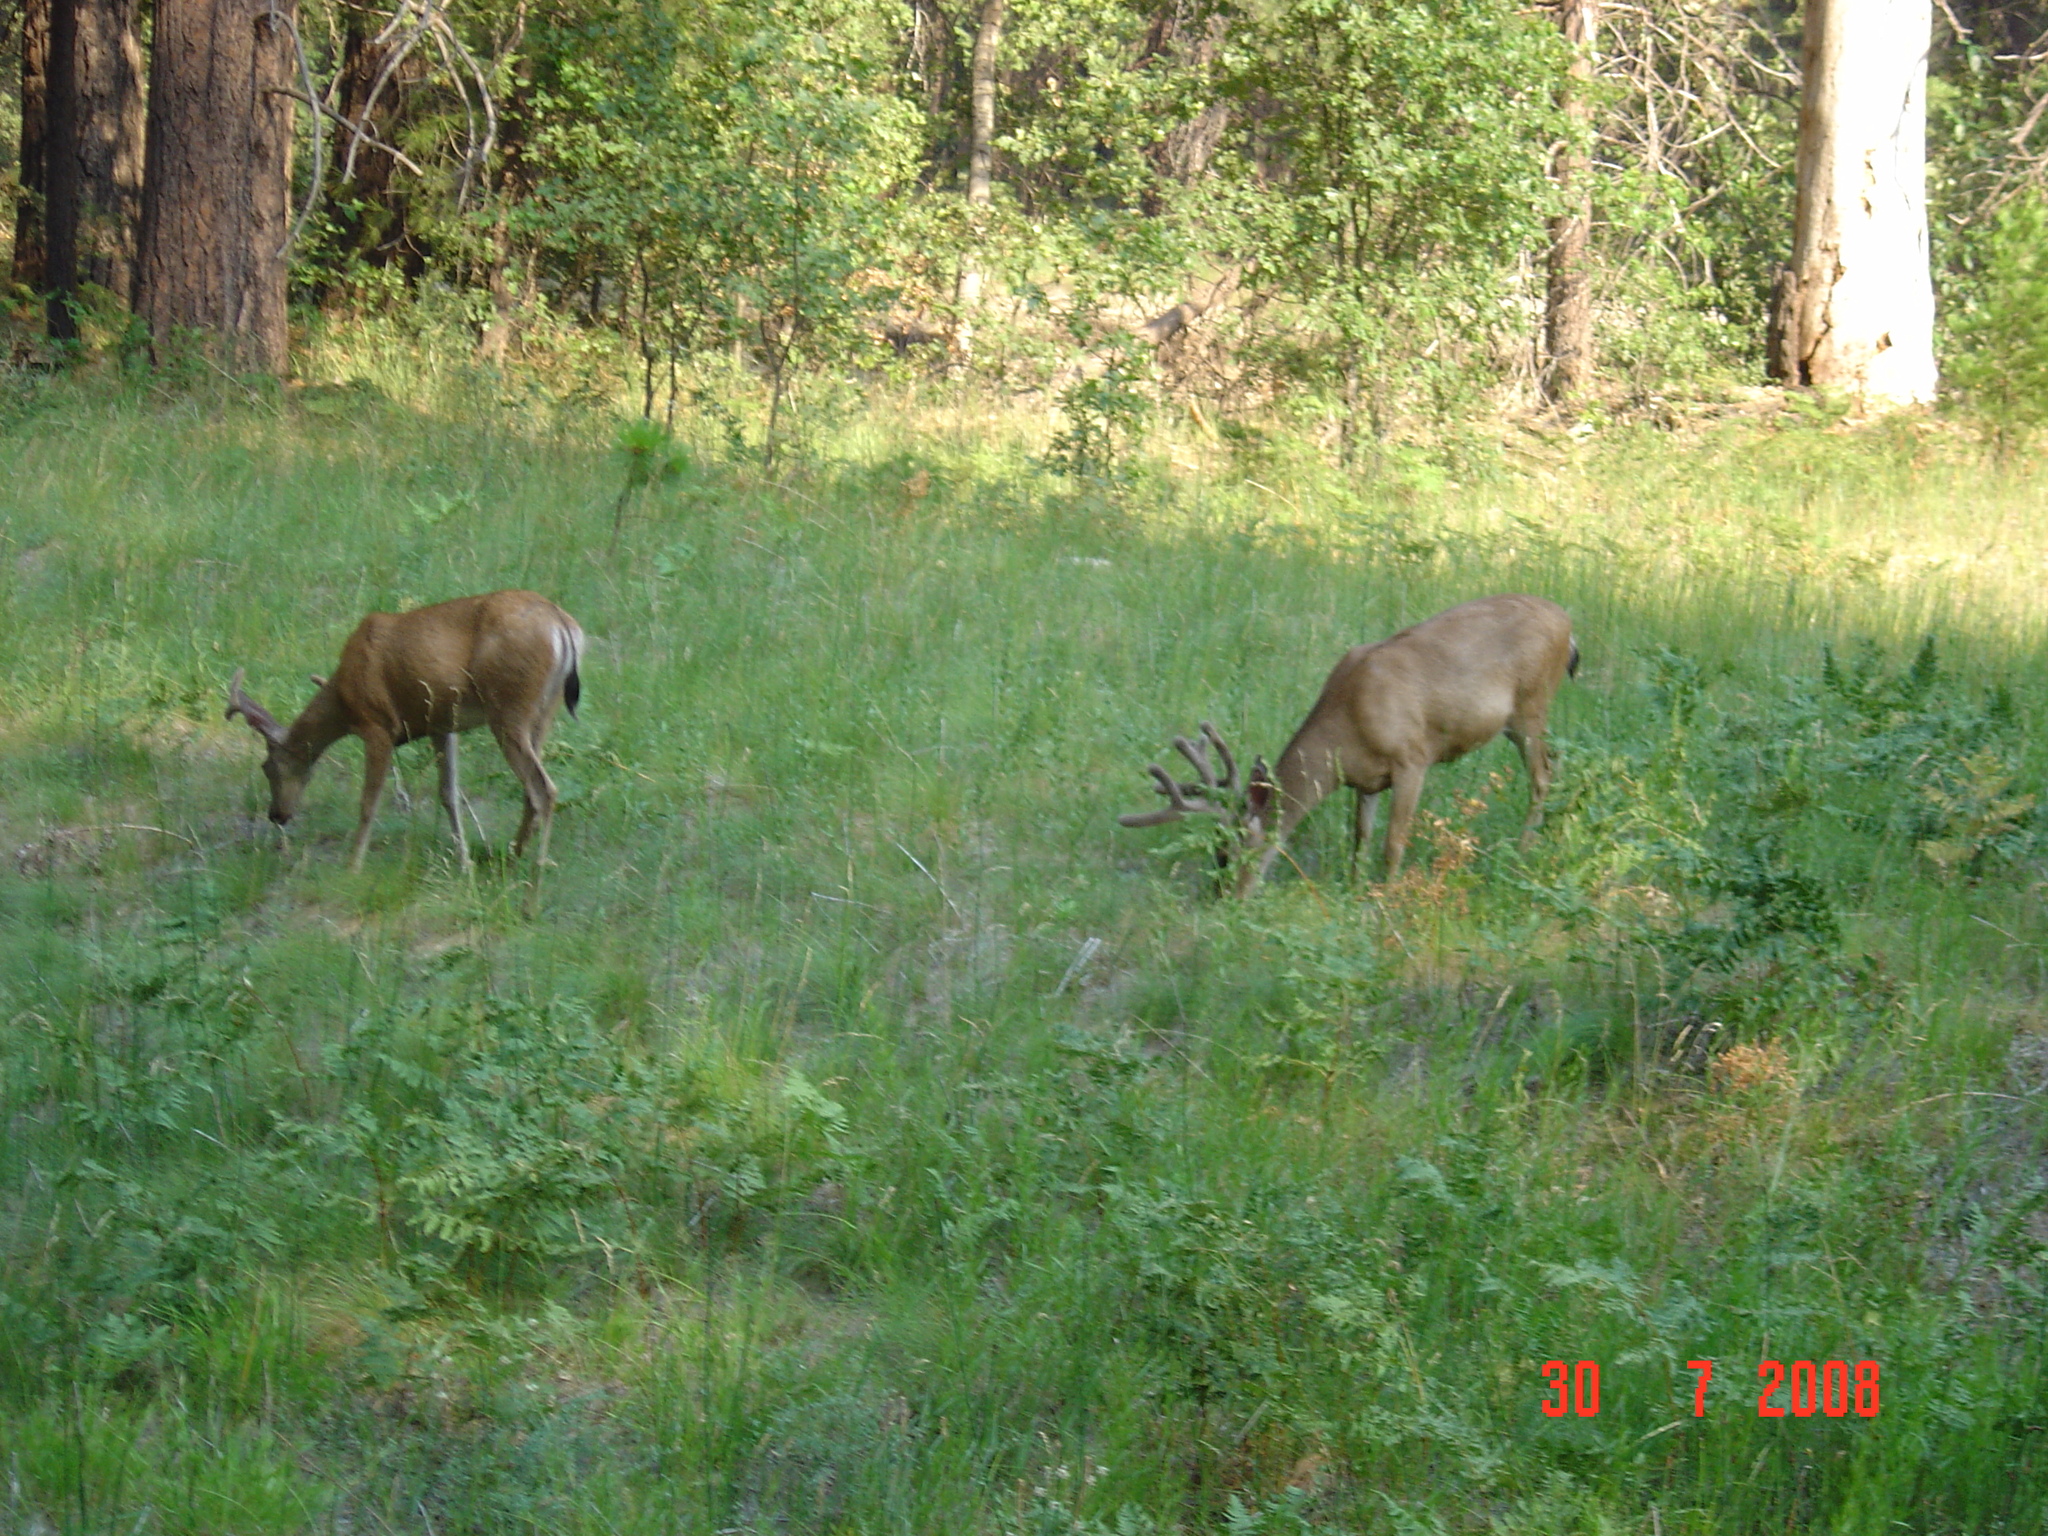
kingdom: Animalia
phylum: Chordata
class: Mammalia
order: Artiodactyla
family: Cervidae
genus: Odocoileus
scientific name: Odocoileus hemionus
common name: Mule deer
